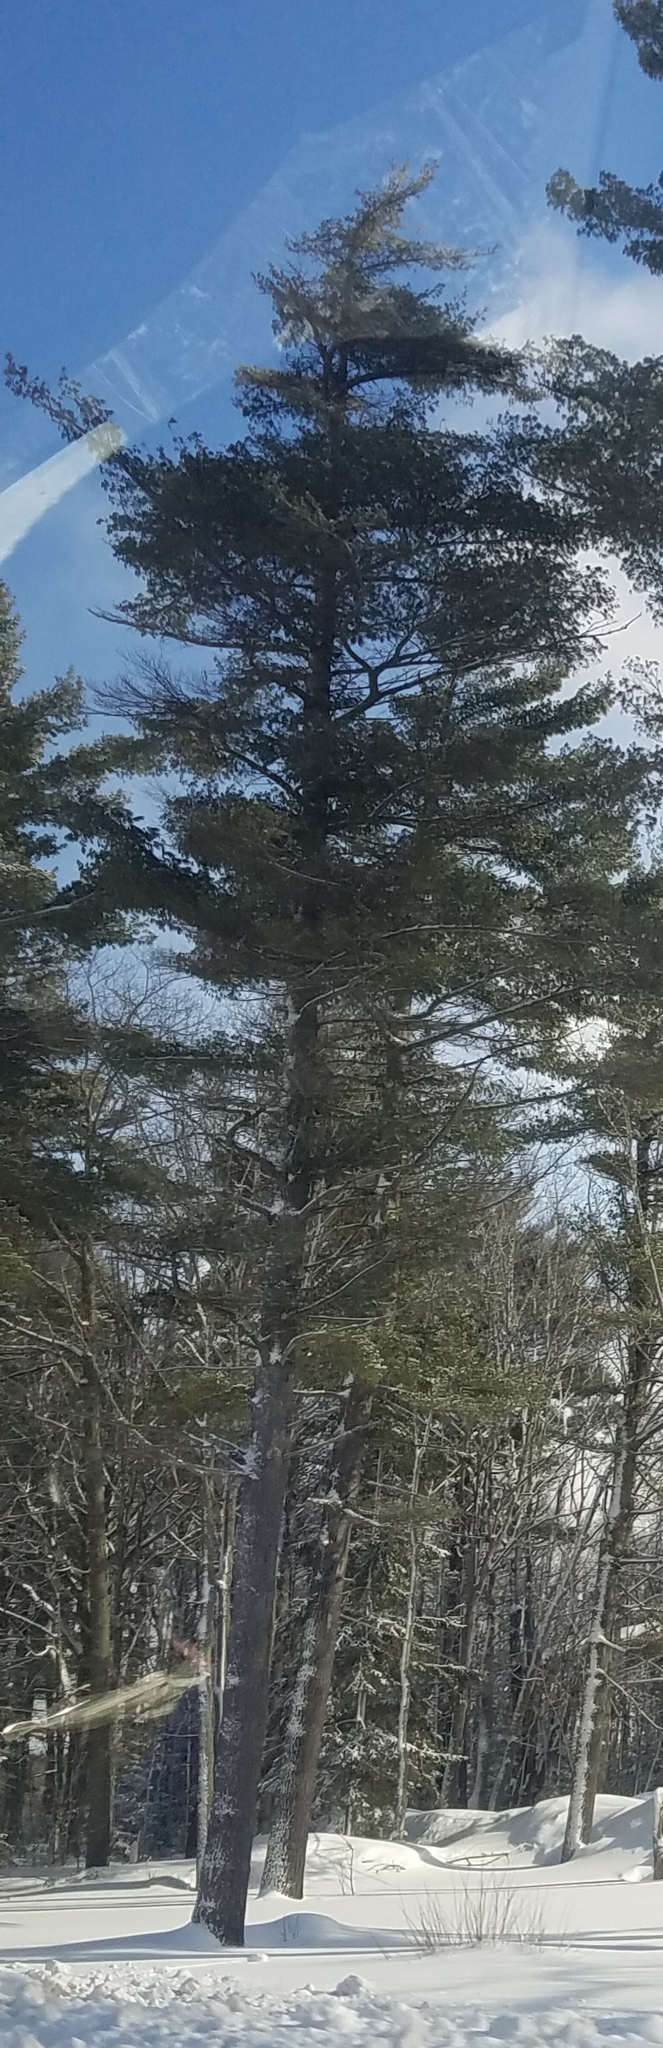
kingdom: Plantae
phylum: Tracheophyta
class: Pinopsida
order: Pinales
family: Pinaceae
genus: Pinus
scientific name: Pinus strobus
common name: Weymouth pine
